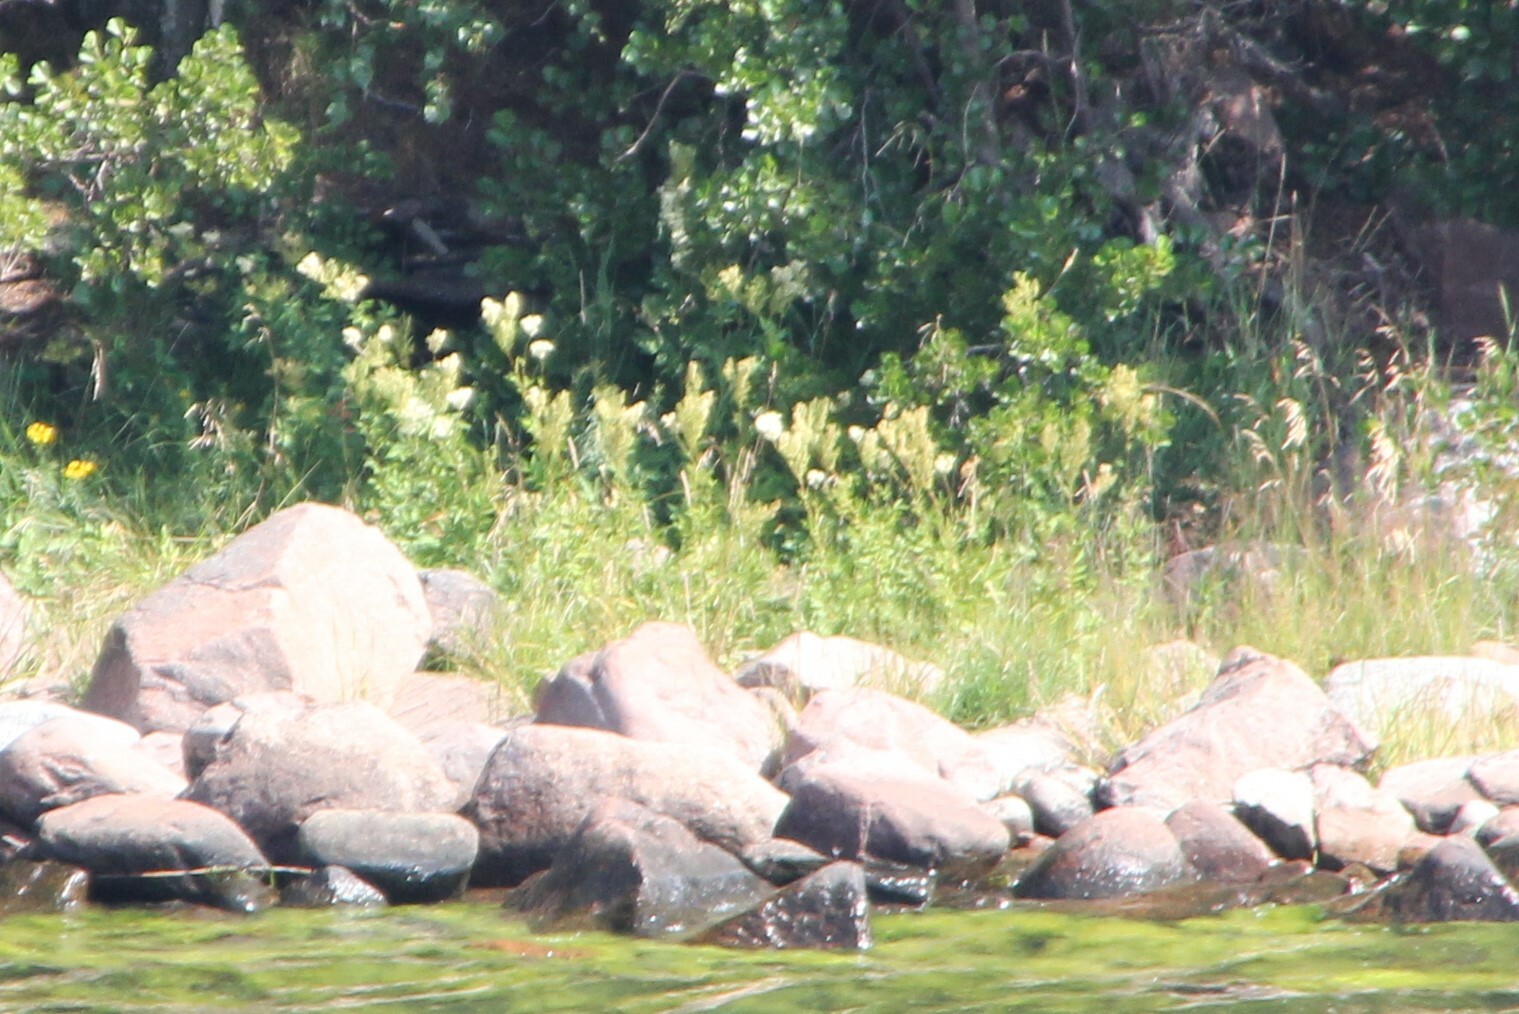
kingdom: Plantae
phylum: Tracheophyta
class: Magnoliopsida
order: Rosales
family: Rosaceae
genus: Filipendula
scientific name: Filipendula ulmaria
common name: Meadowsweet
